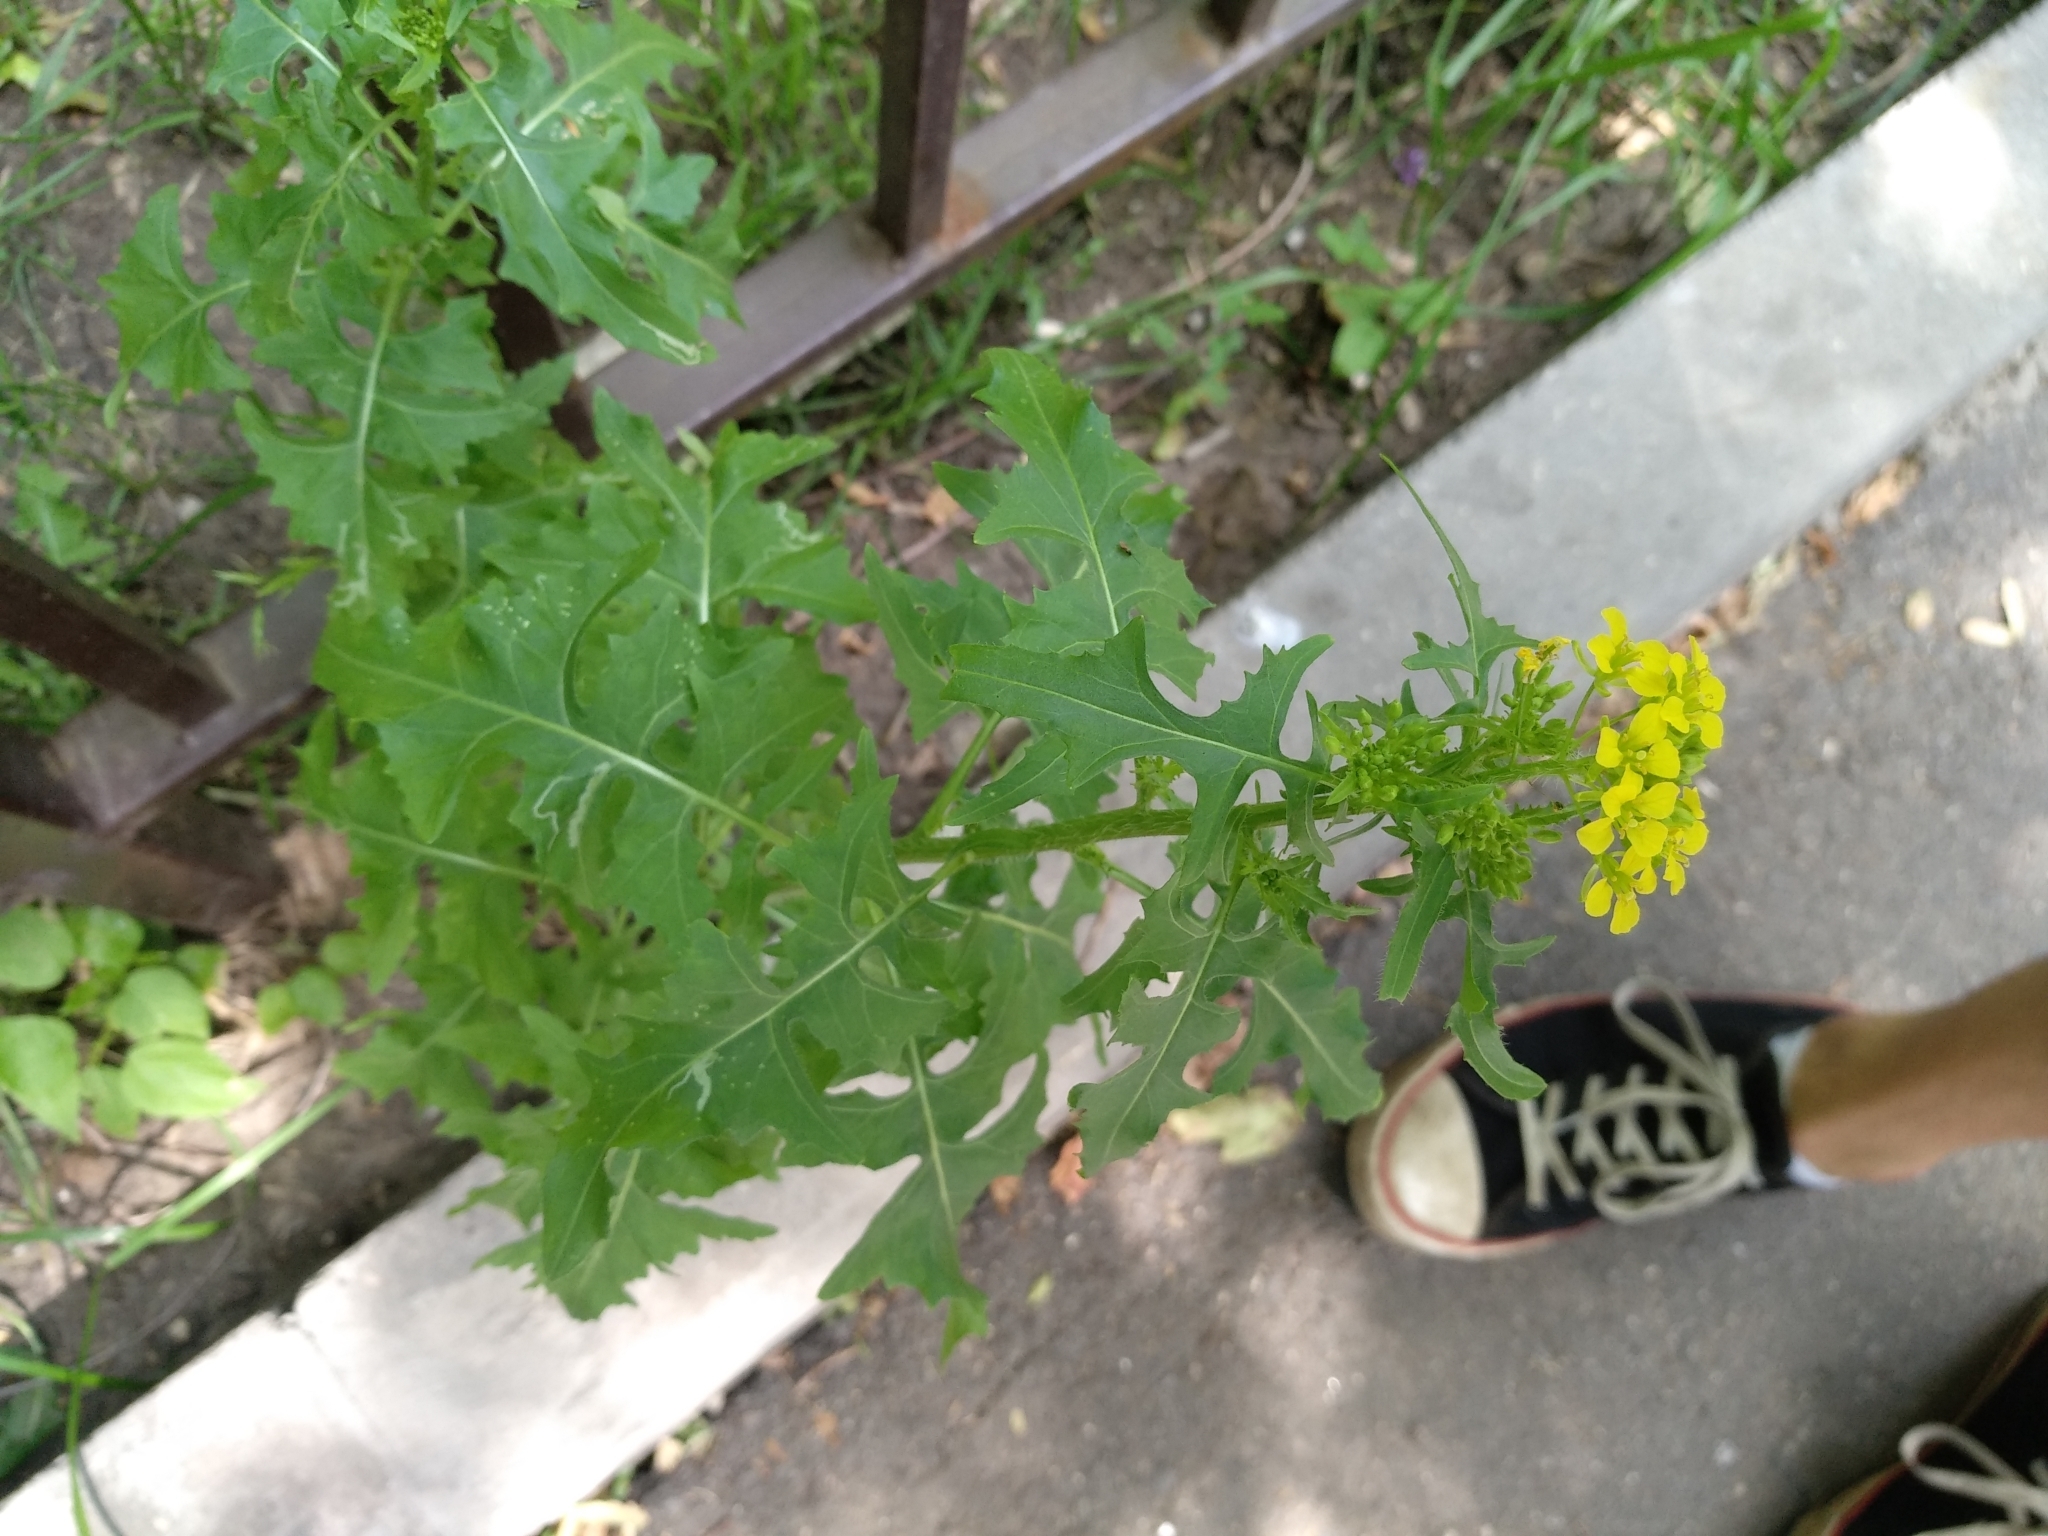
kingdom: Plantae
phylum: Tracheophyta
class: Magnoliopsida
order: Brassicales
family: Brassicaceae
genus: Sisymbrium
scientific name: Sisymbrium loeselii
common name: False london-rocket
